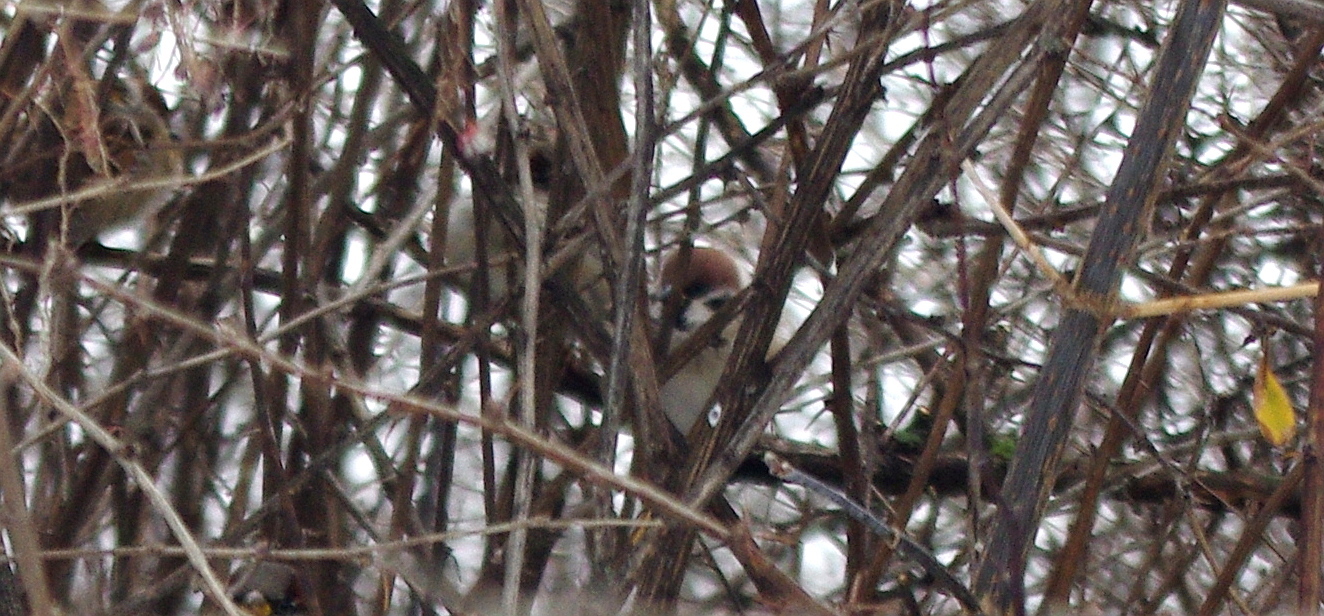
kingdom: Animalia
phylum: Chordata
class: Aves
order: Passeriformes
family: Passeridae
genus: Passer
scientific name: Passer montanus
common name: Eurasian tree sparrow
